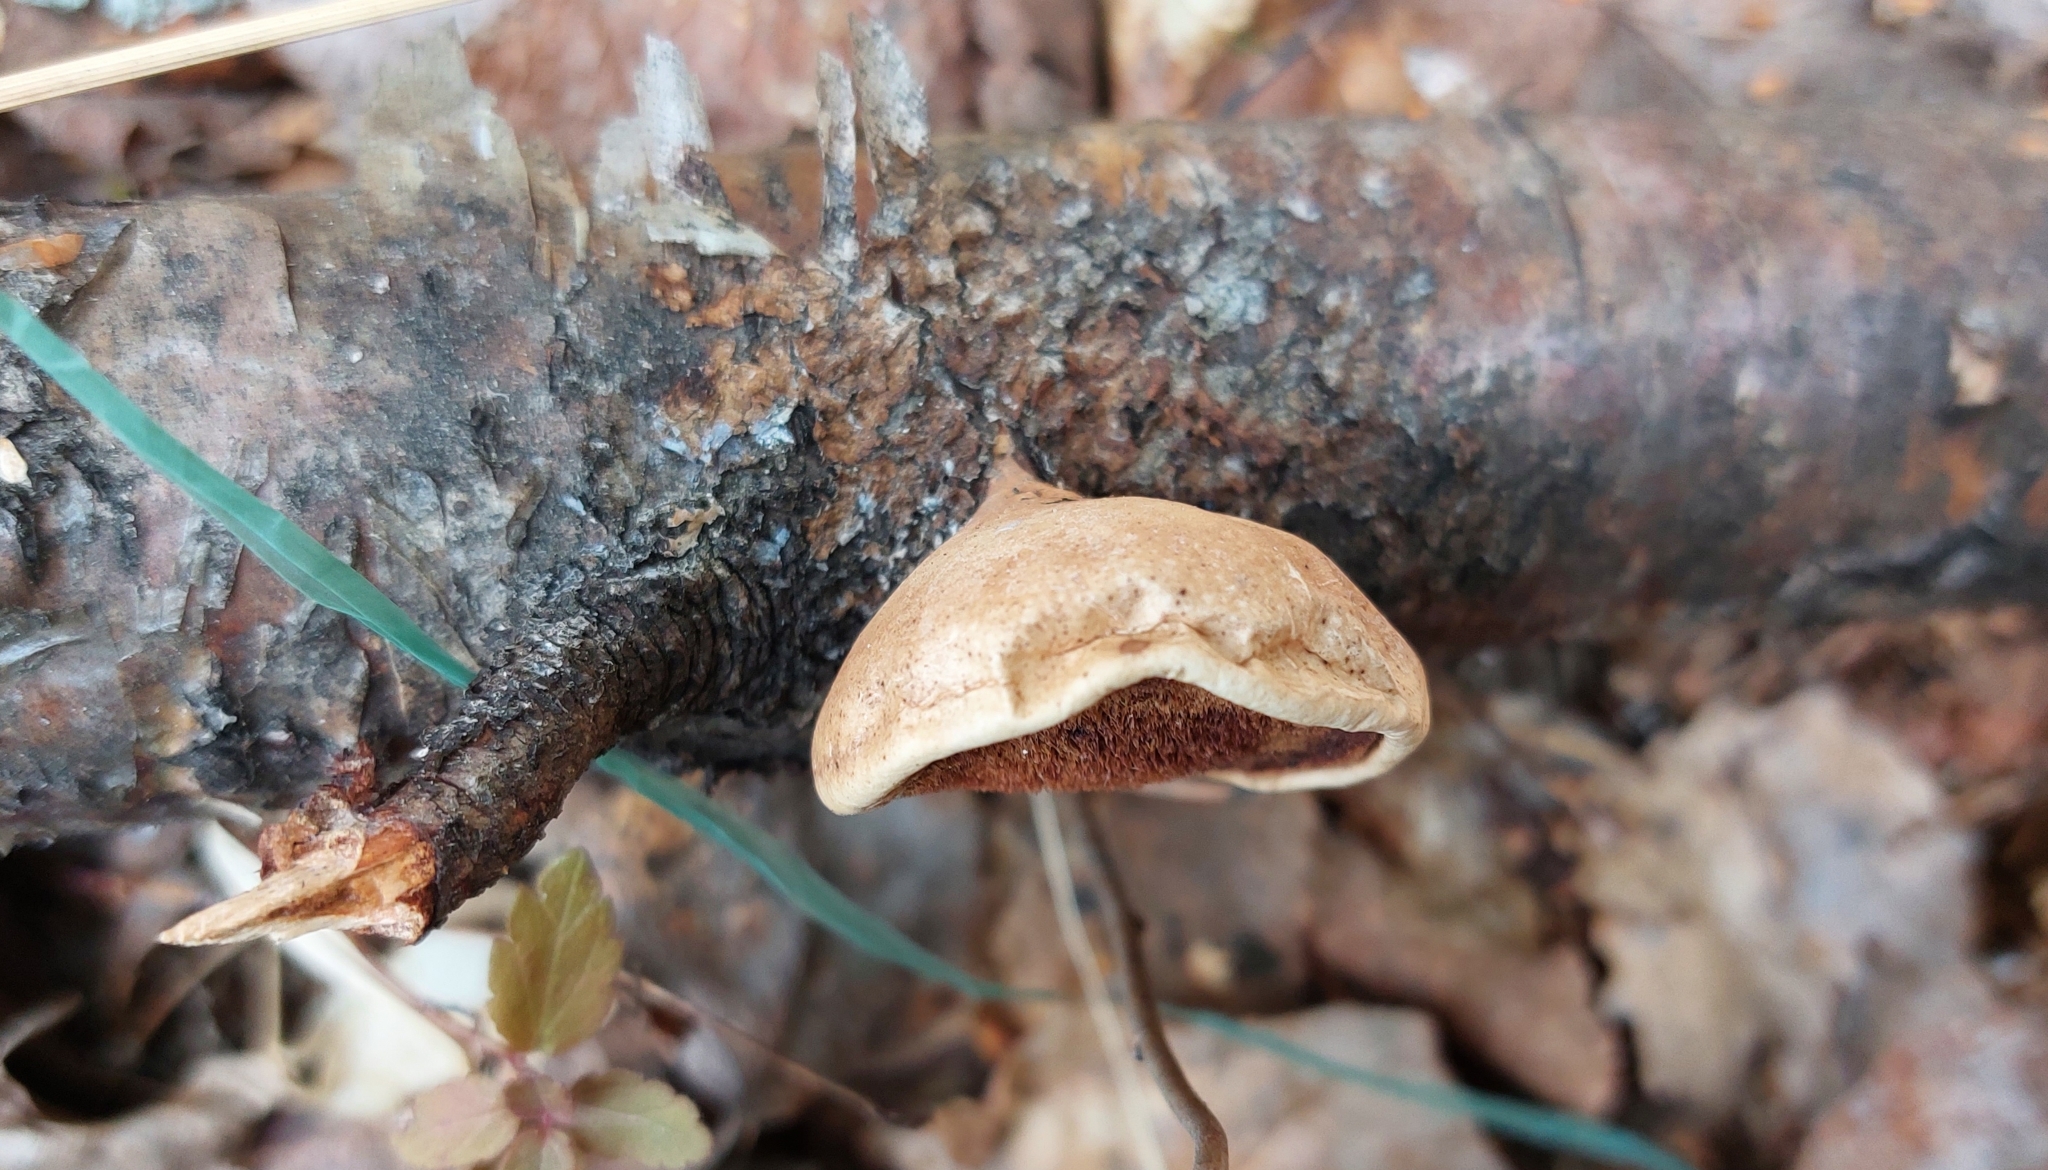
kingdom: Fungi
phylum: Basidiomycota
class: Agaricomycetes
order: Polyporales
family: Fomitopsidaceae
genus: Fomitopsis
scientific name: Fomitopsis betulina
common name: Birch polypore
